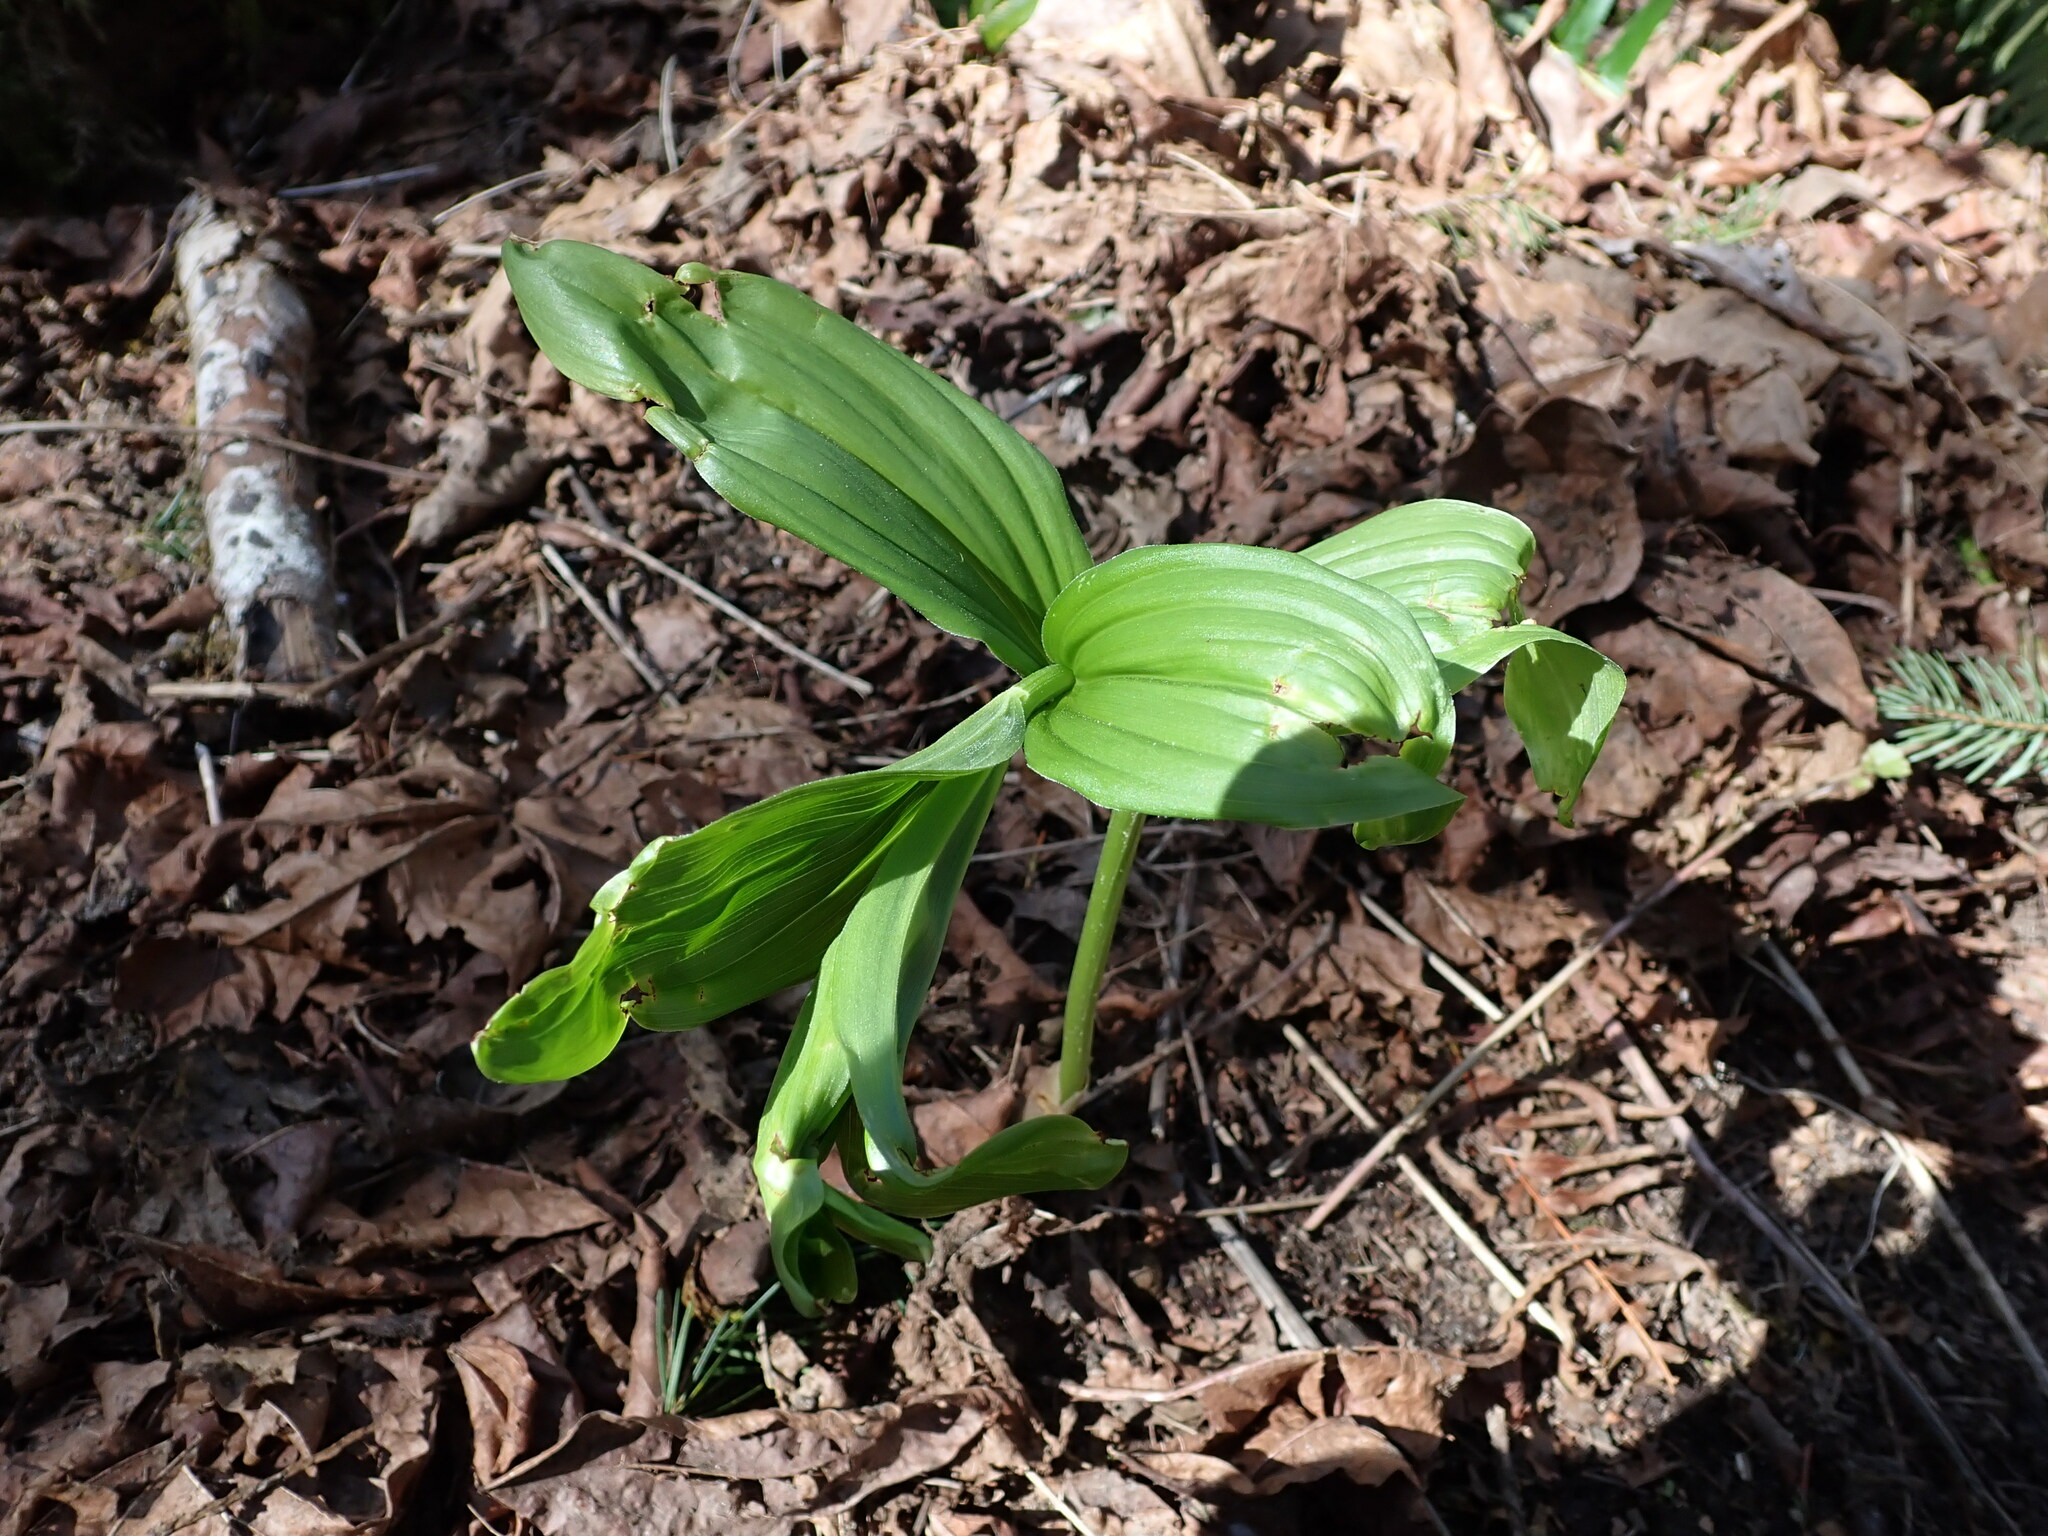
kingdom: Plantae
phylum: Tracheophyta
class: Liliopsida
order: Asparagales
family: Asparagaceae
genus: Maianthemum
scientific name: Maianthemum racemosum
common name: False spikenard
